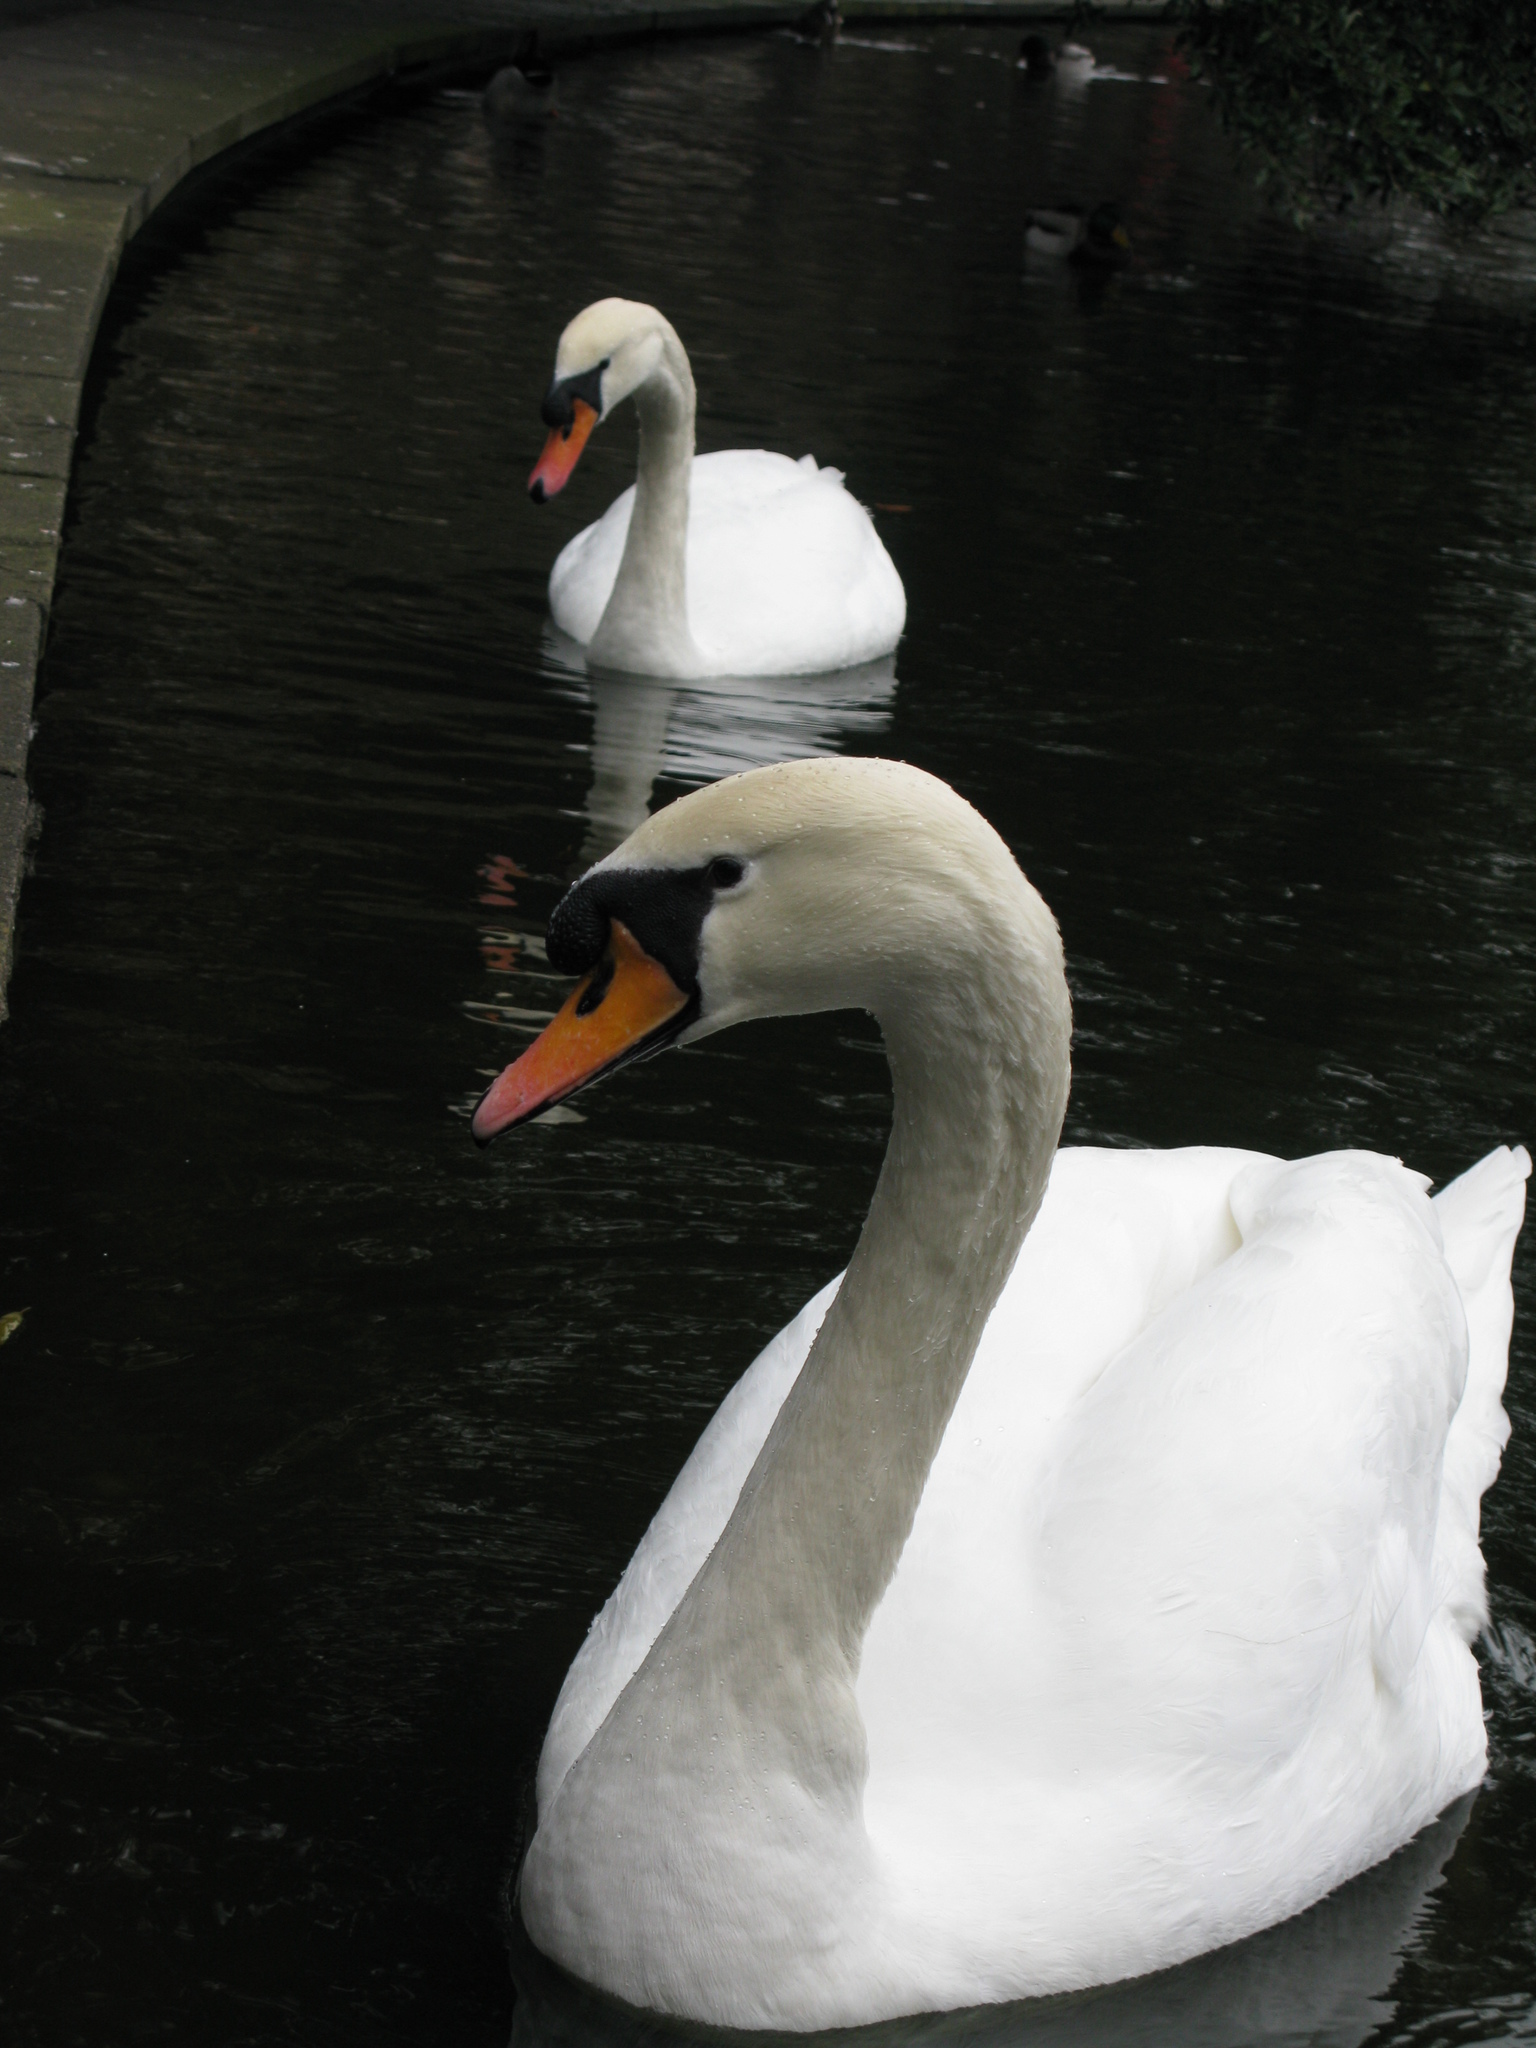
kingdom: Animalia
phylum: Chordata
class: Aves
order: Anseriformes
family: Anatidae
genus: Cygnus
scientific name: Cygnus olor
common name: Mute swan
